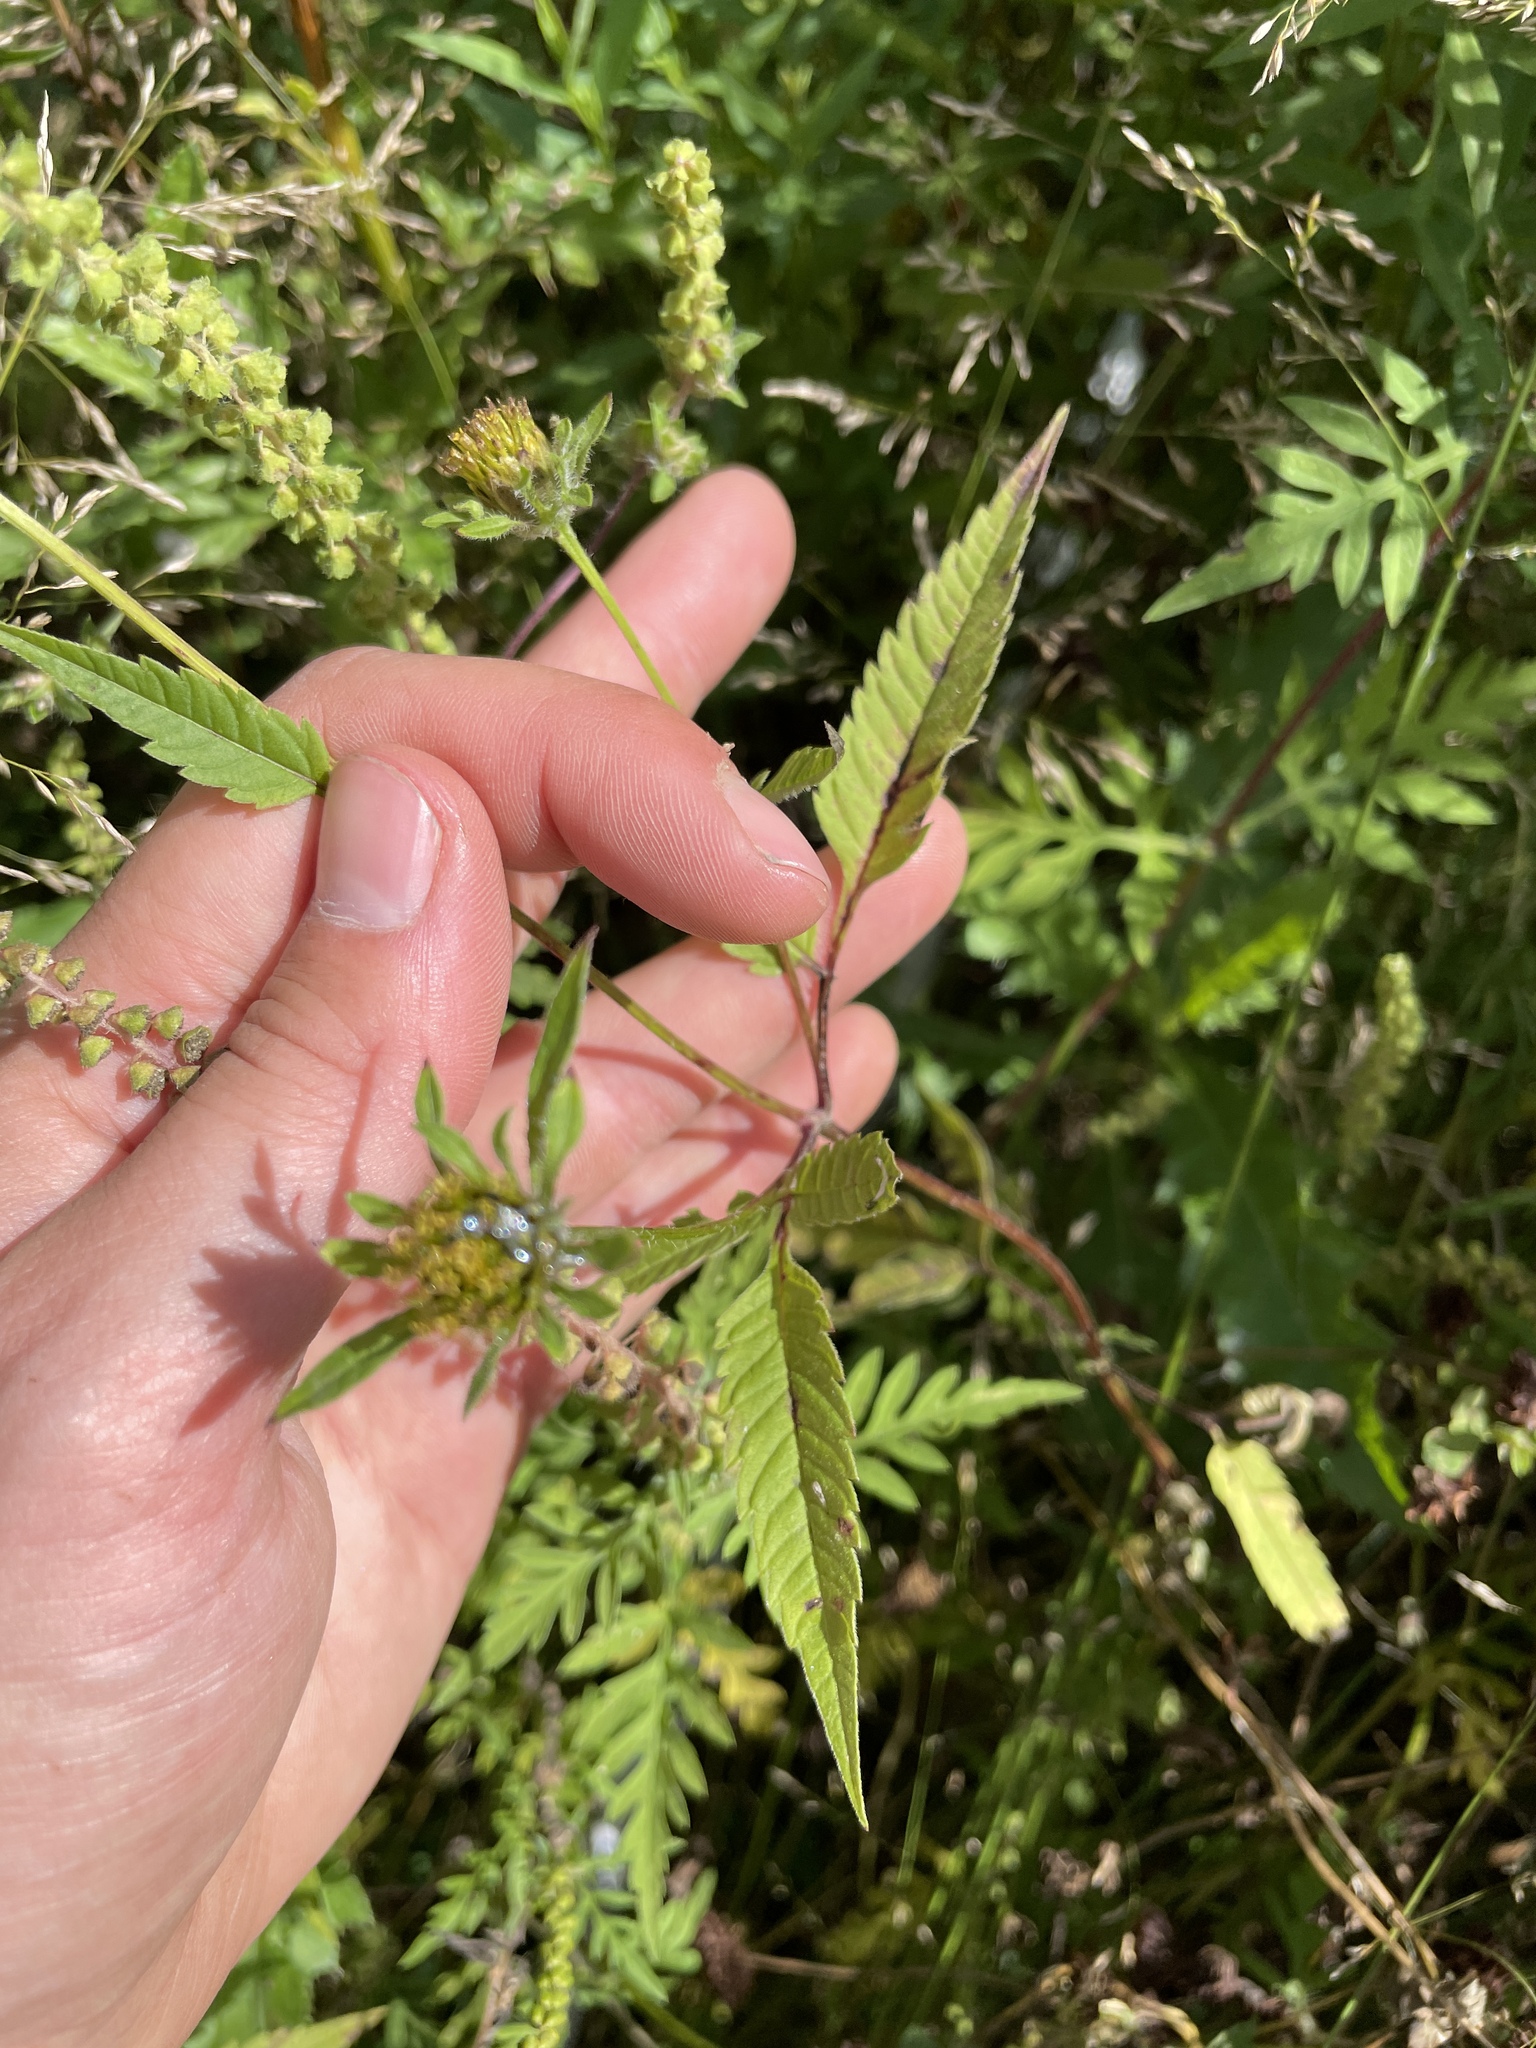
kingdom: Plantae
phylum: Tracheophyta
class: Magnoliopsida
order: Asterales
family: Asteraceae
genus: Bidens
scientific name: Bidens vulgata
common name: Tall beggarticks
